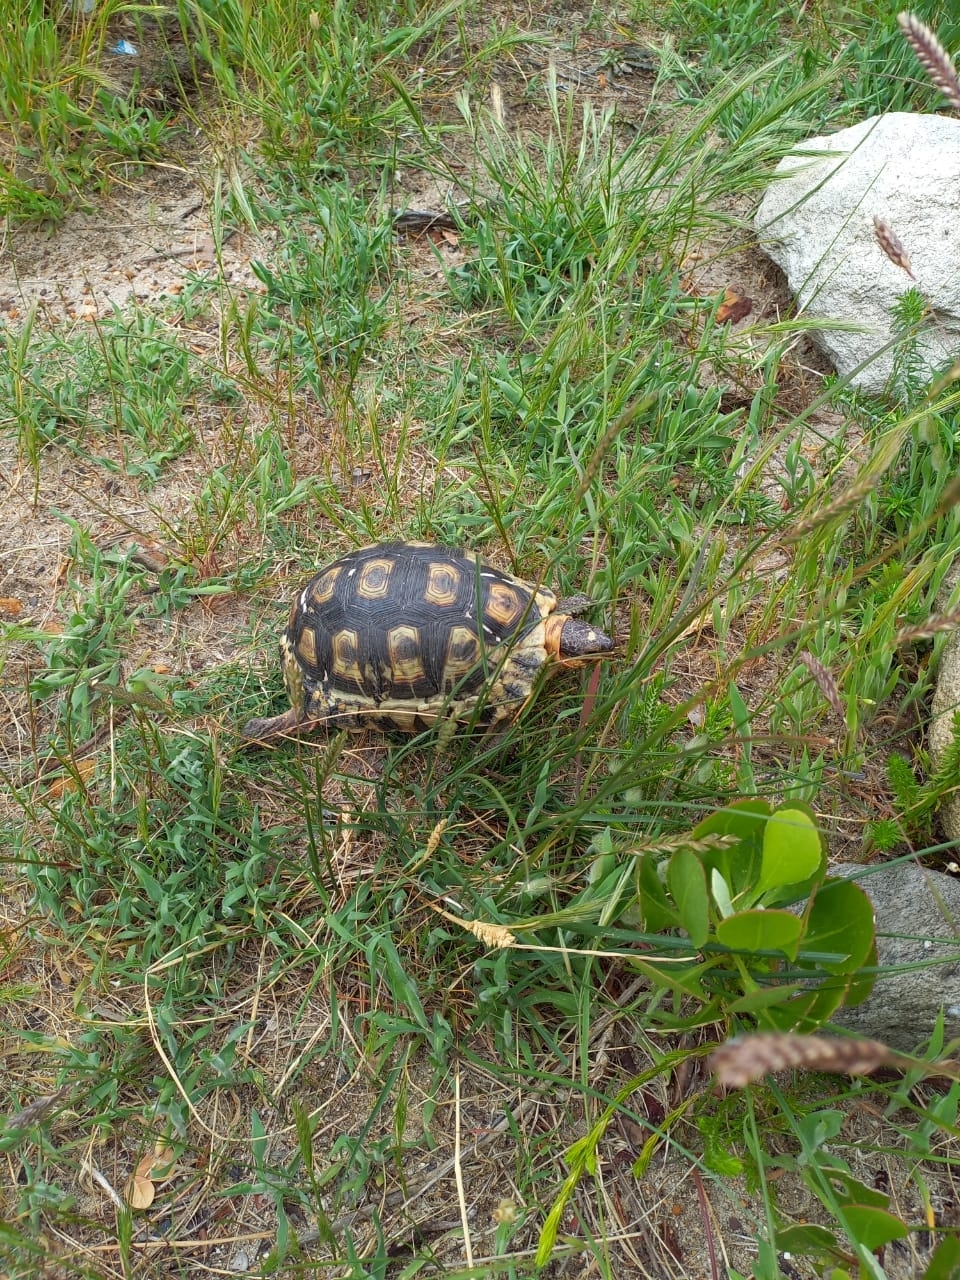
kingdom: Animalia
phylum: Chordata
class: Testudines
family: Testudinidae
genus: Chersina
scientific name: Chersina angulata
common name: South african bowsprit tortoise
